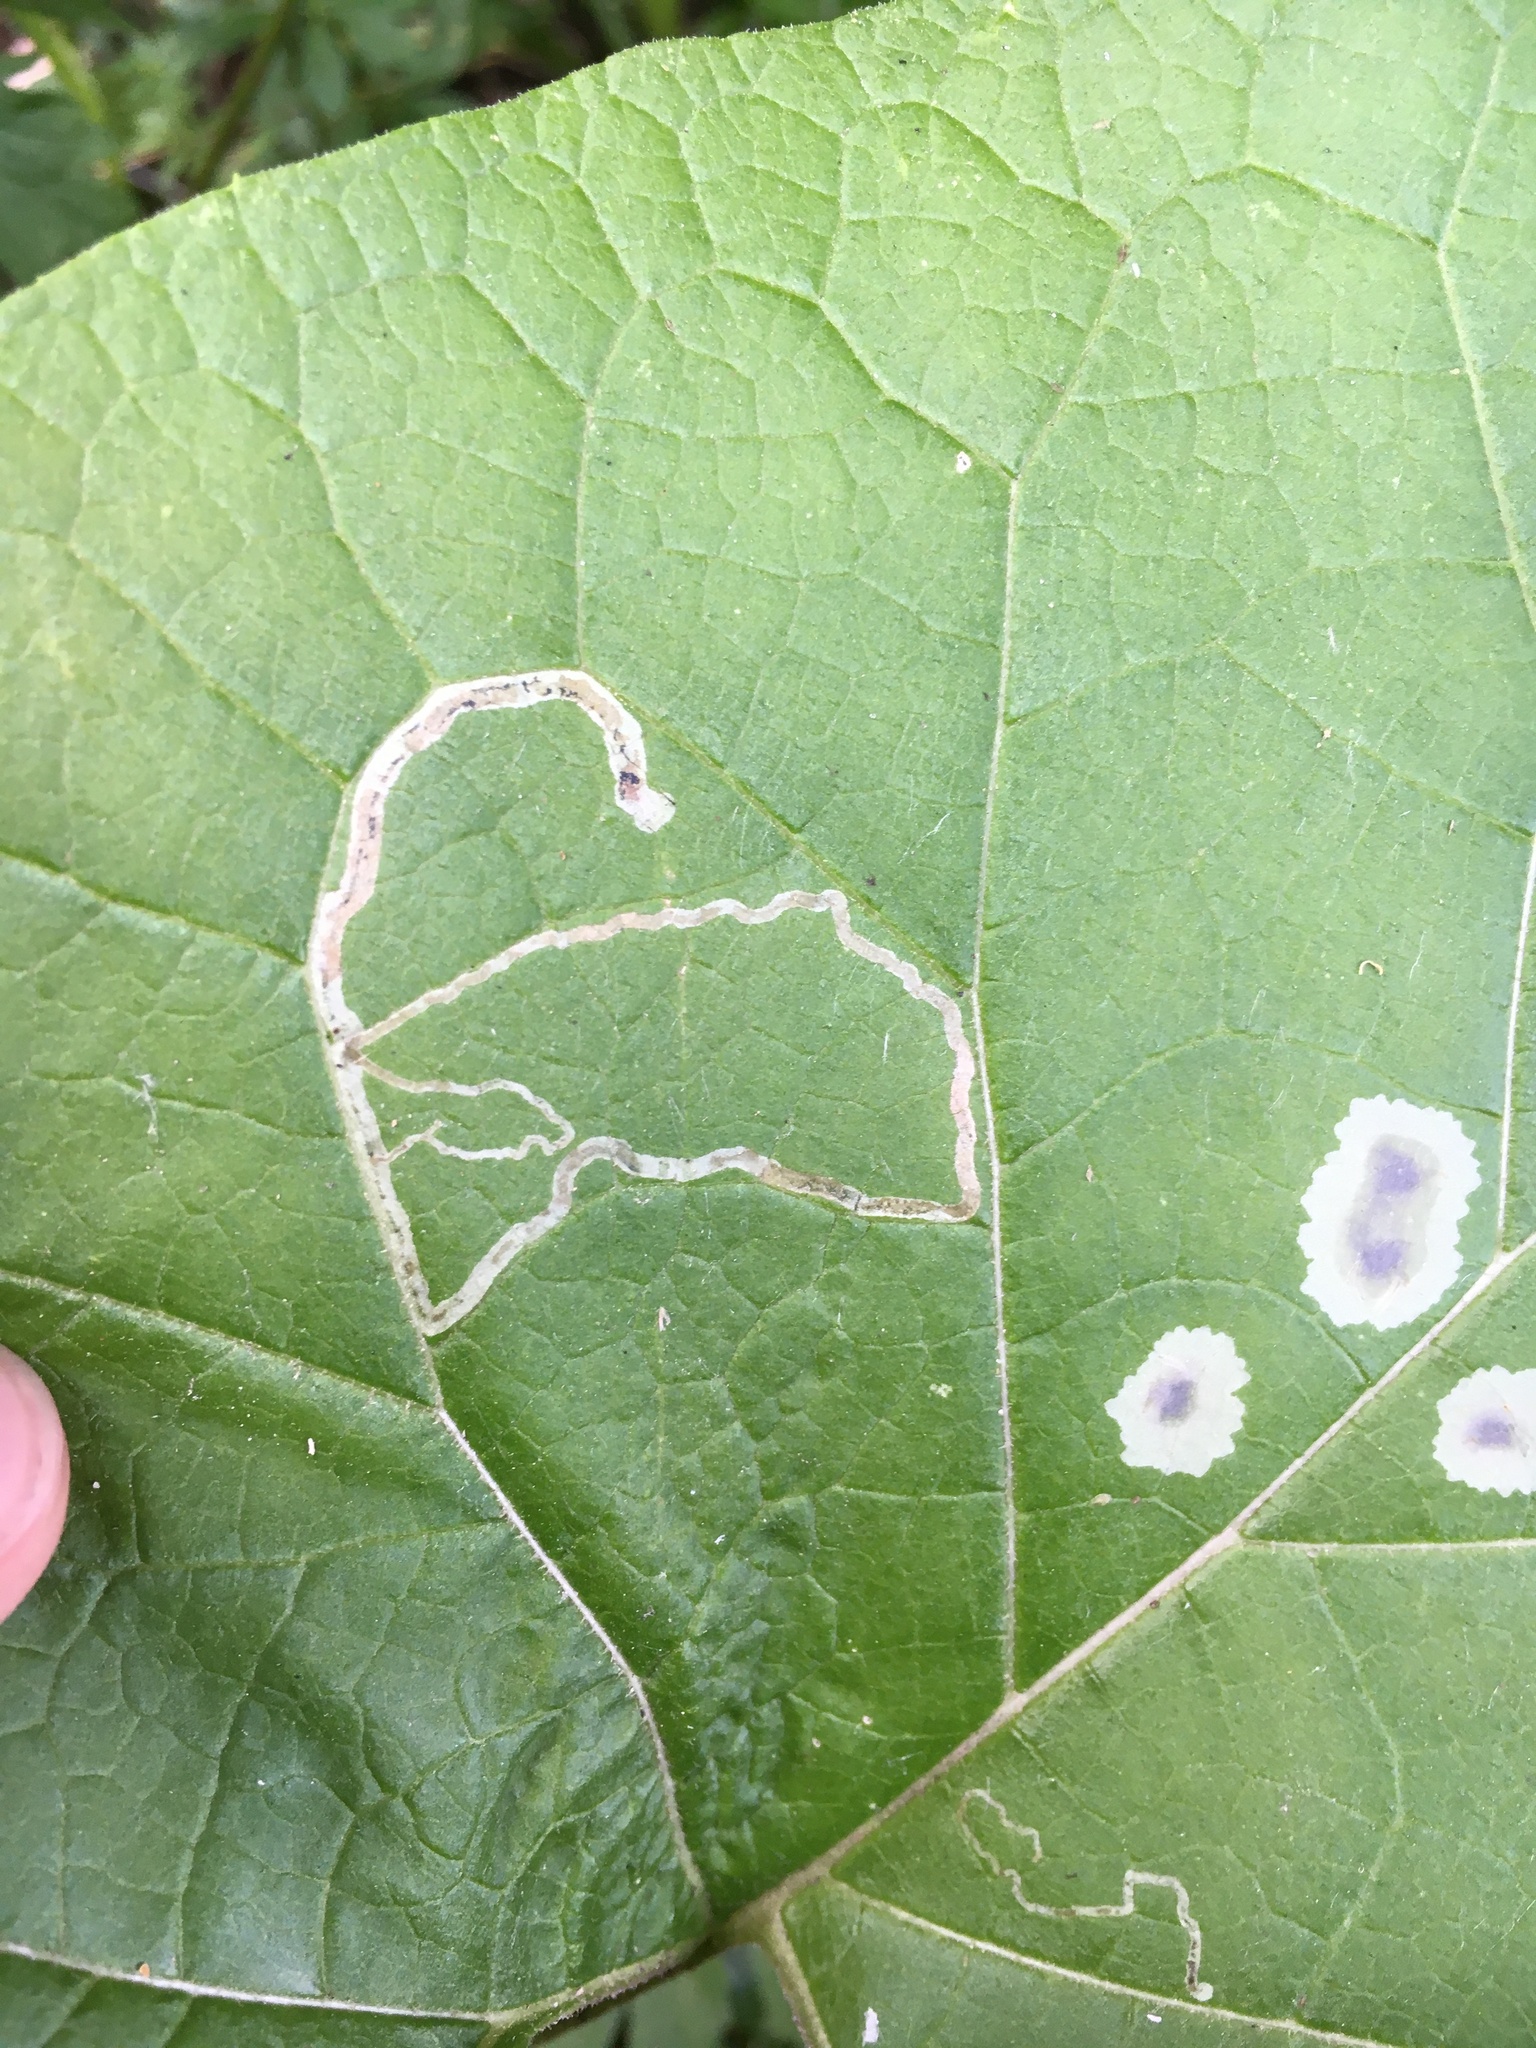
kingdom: Animalia
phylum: Arthropoda
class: Insecta
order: Diptera
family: Agromyzidae
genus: Liriomyza
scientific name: Liriomyza arctii
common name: Burdock leafminer
